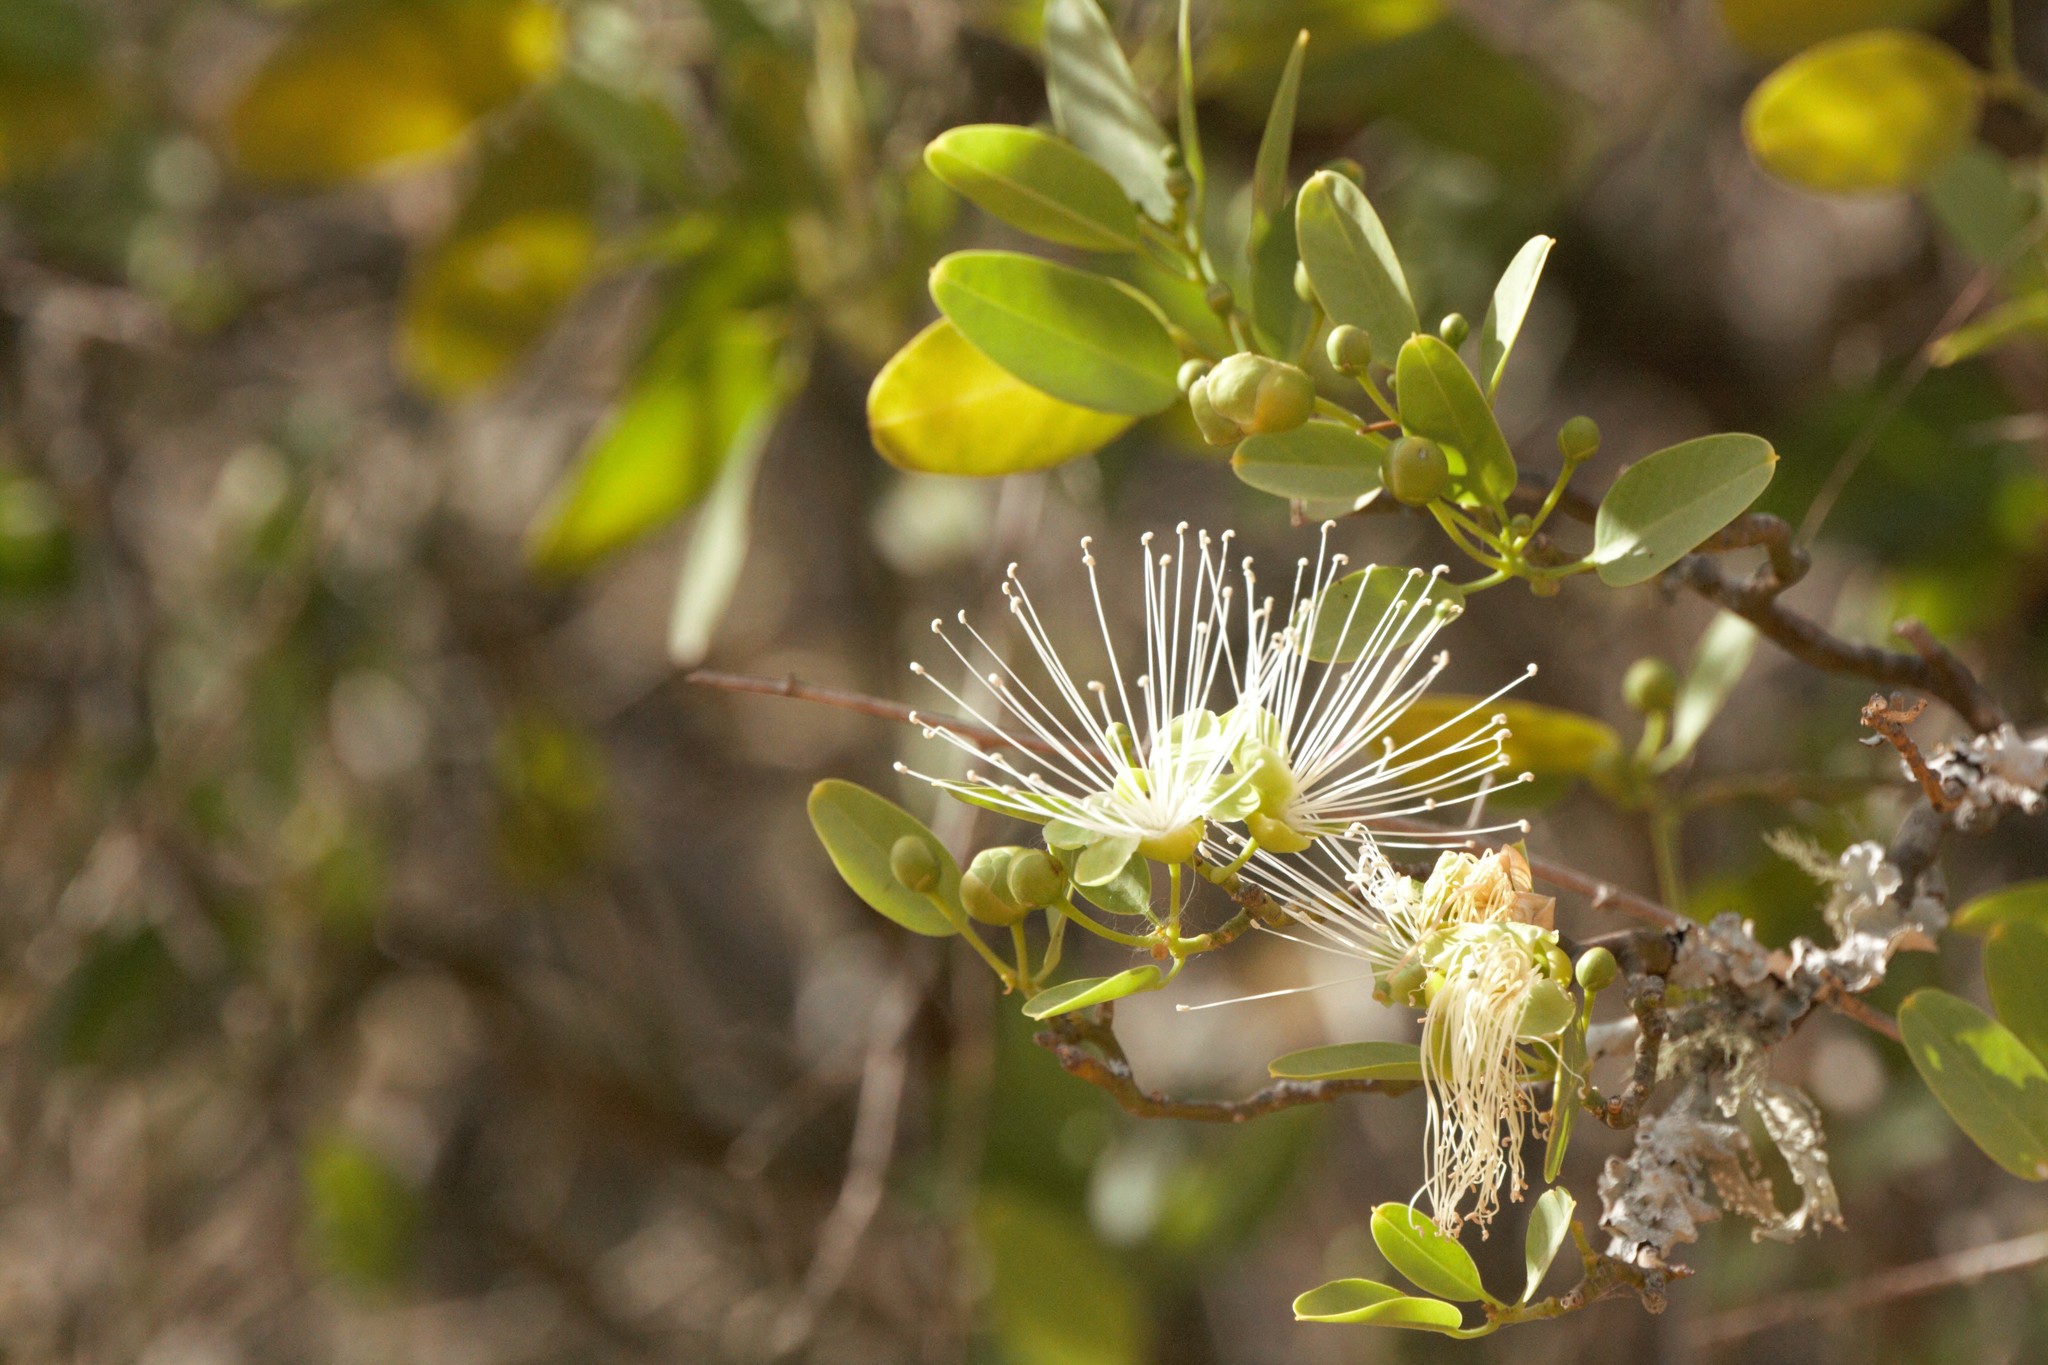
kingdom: Plantae
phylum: Tracheophyta
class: Magnoliopsida
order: Brassicales
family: Capparaceae
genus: Anisocapparis
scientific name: Anisocapparis speciosa
